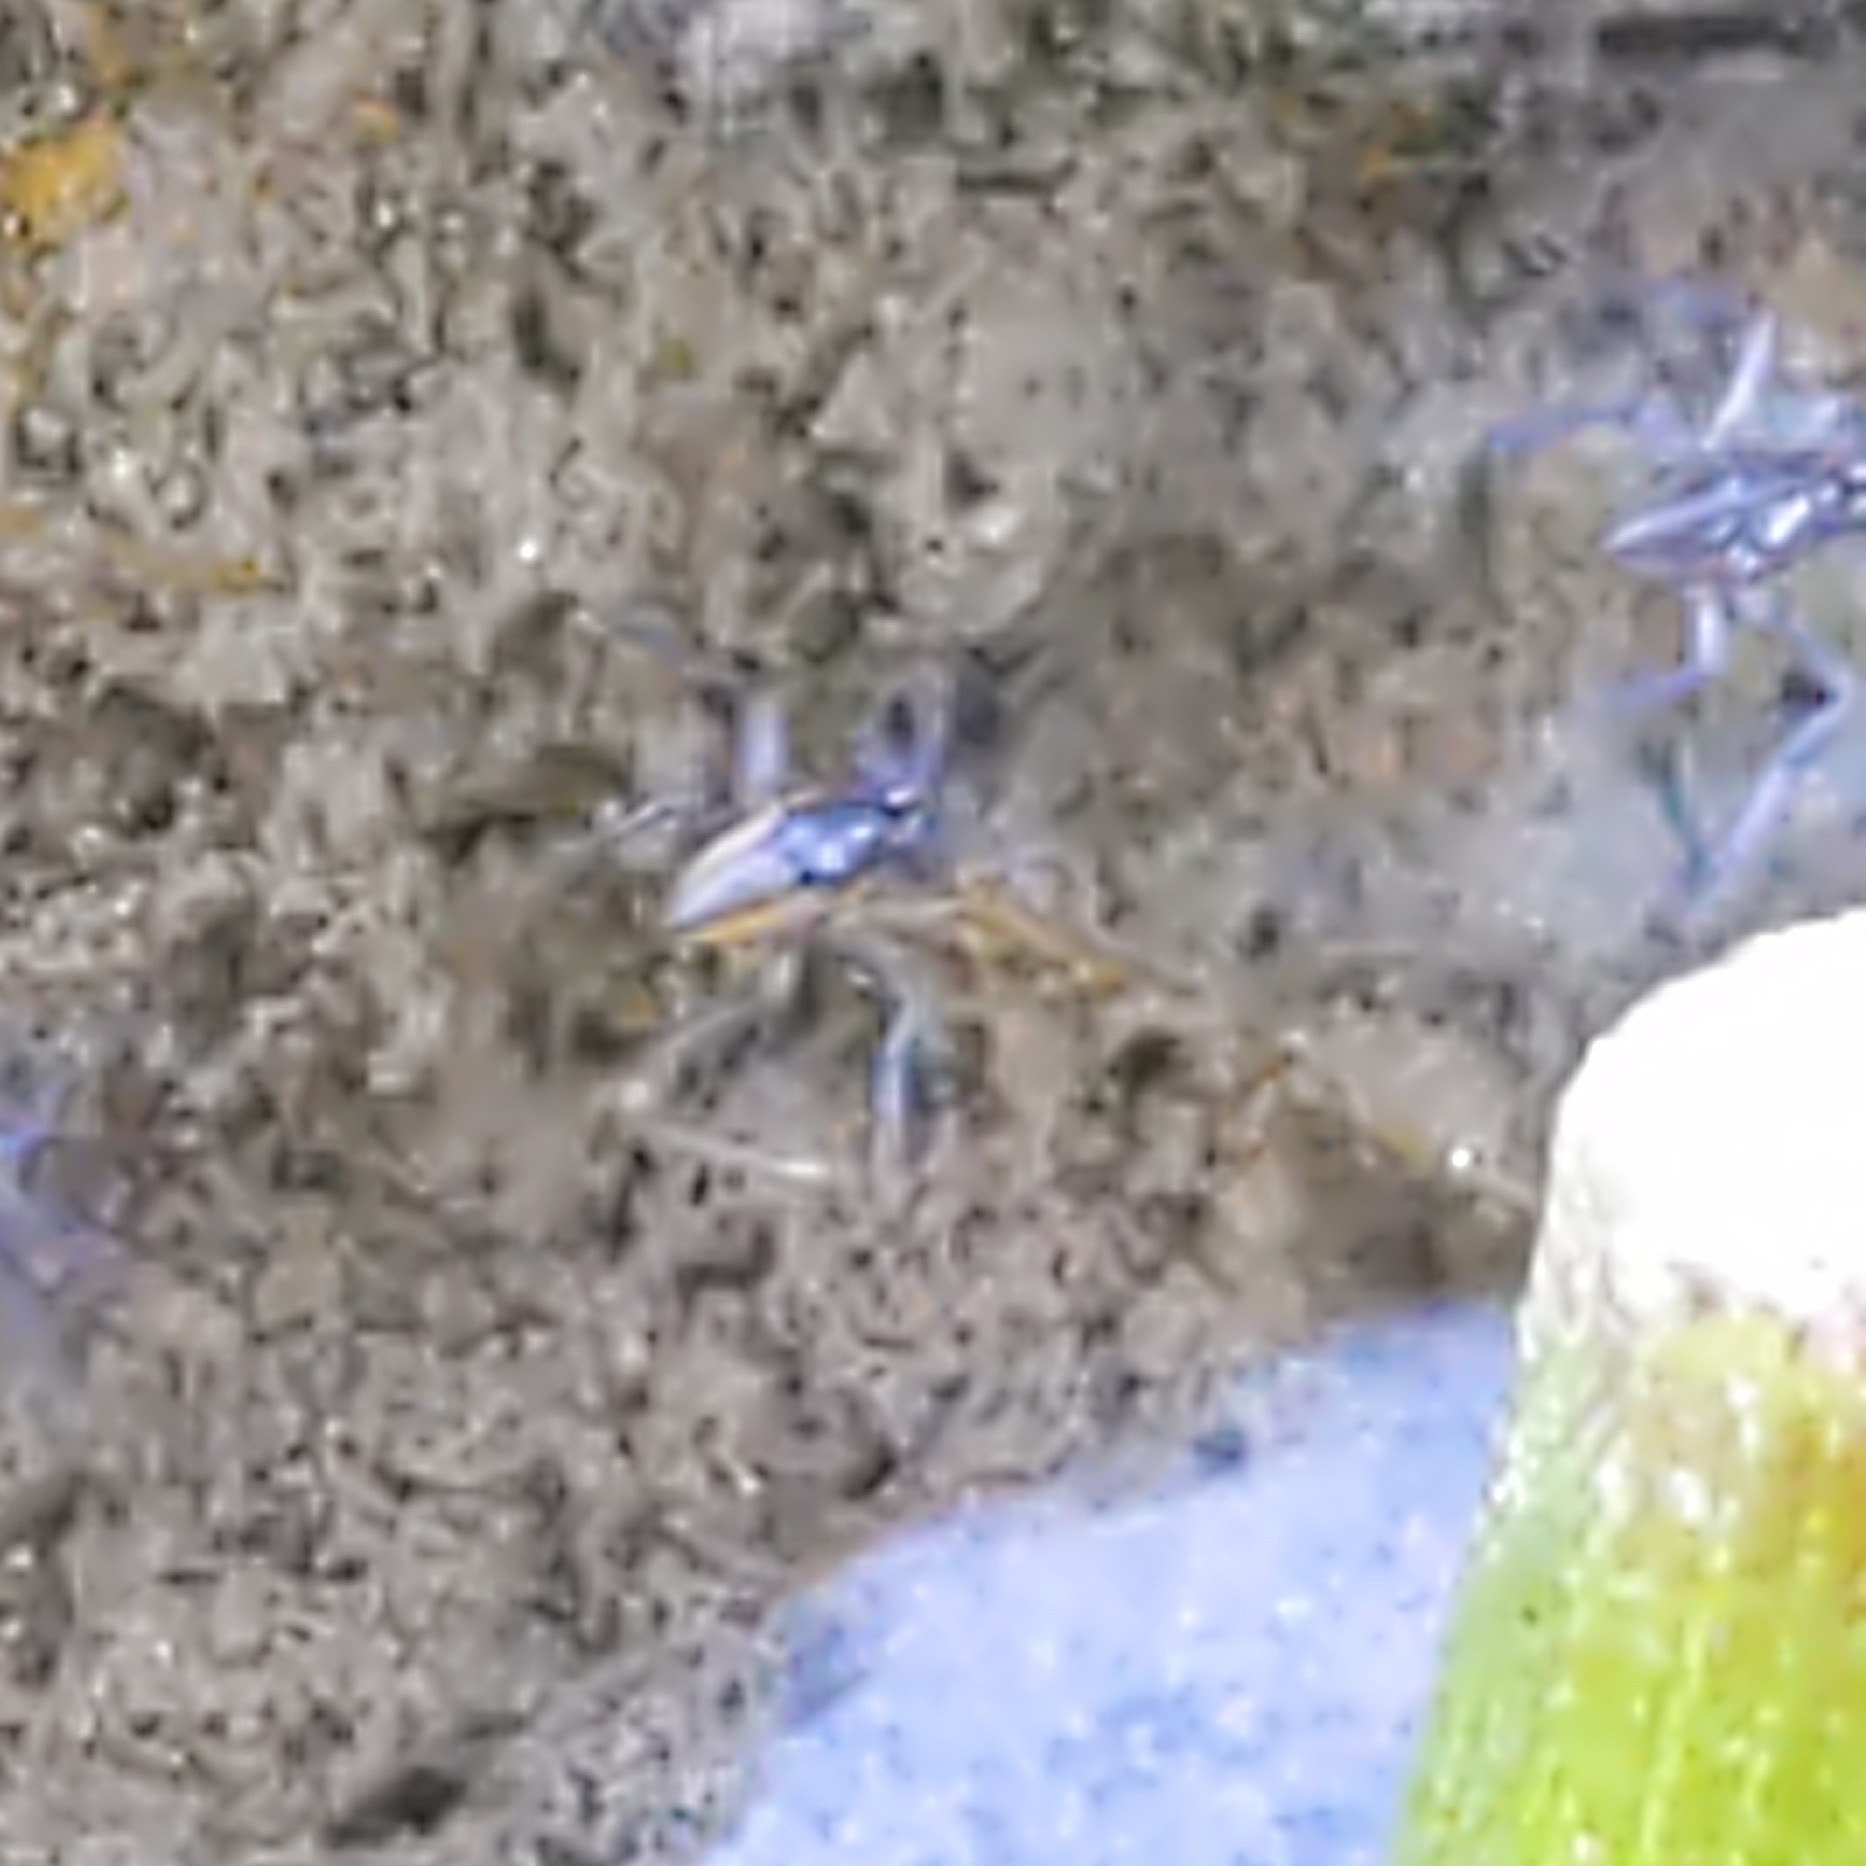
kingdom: Animalia
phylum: Arthropoda
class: Insecta
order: Hemiptera
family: Veliidae
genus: Rhagovelia
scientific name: Rhagovelia obesa
